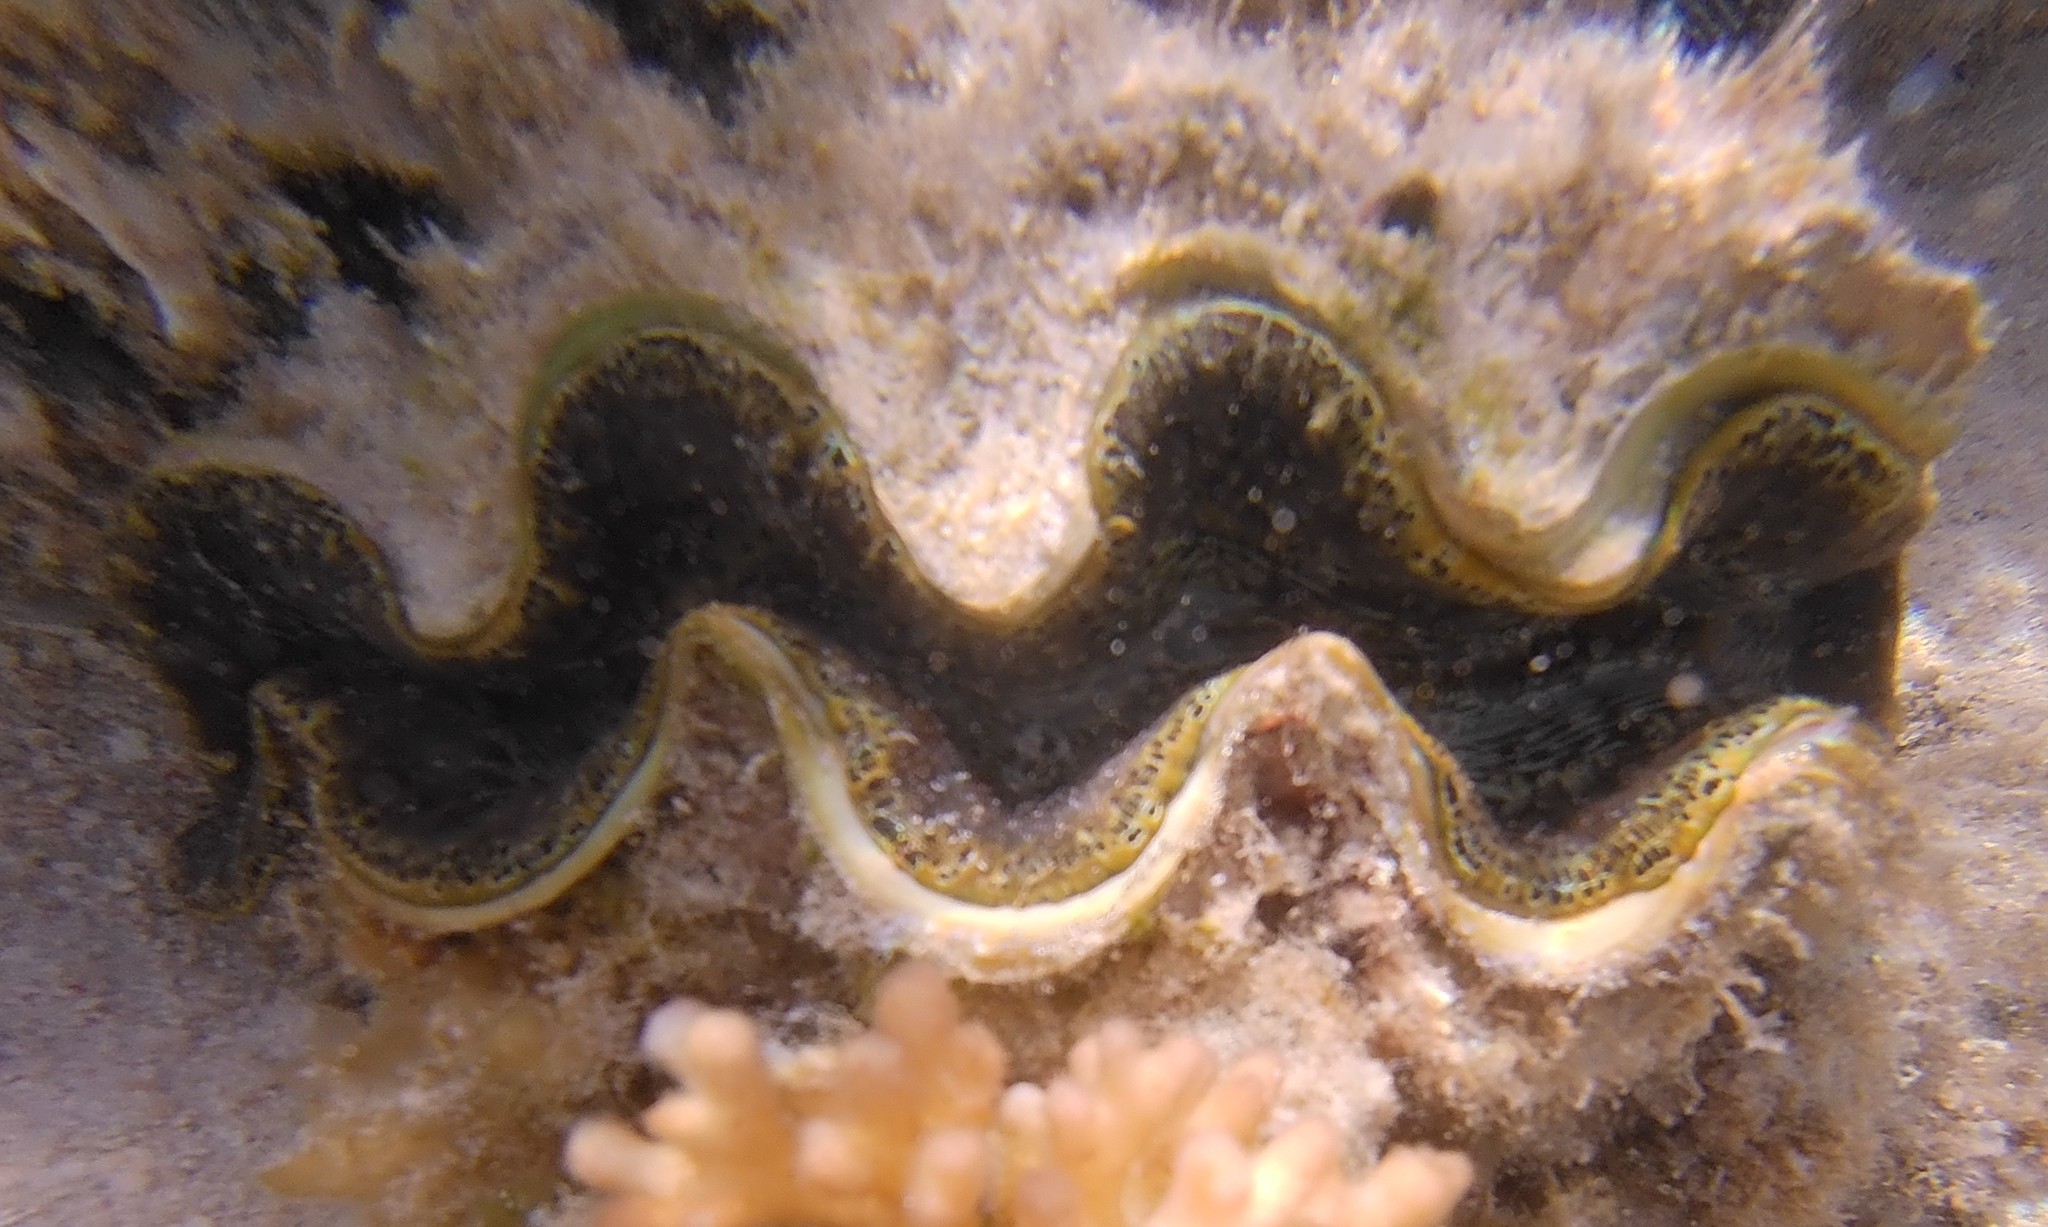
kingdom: Animalia
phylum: Mollusca
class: Bivalvia
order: Cardiida
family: Cardiidae
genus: Tridacna
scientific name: Tridacna maxima
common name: Small giant clam
